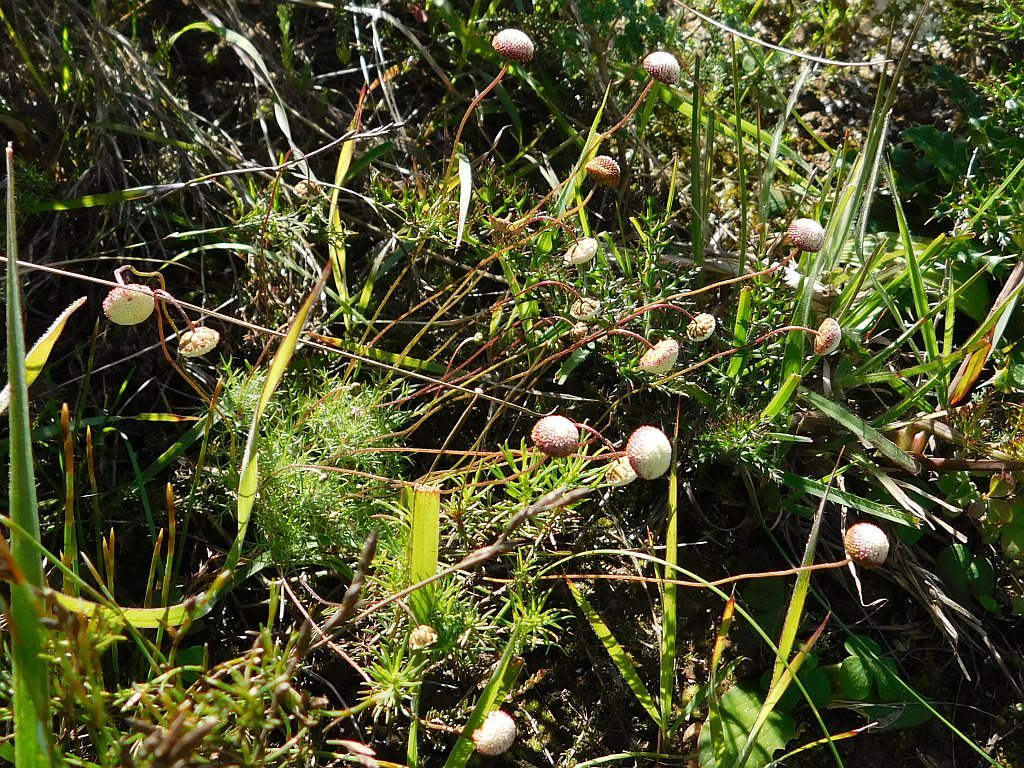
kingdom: Plantae
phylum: Tracheophyta
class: Magnoliopsida
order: Asterales
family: Asteraceae
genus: Cotula
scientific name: Cotula ceniifolia
